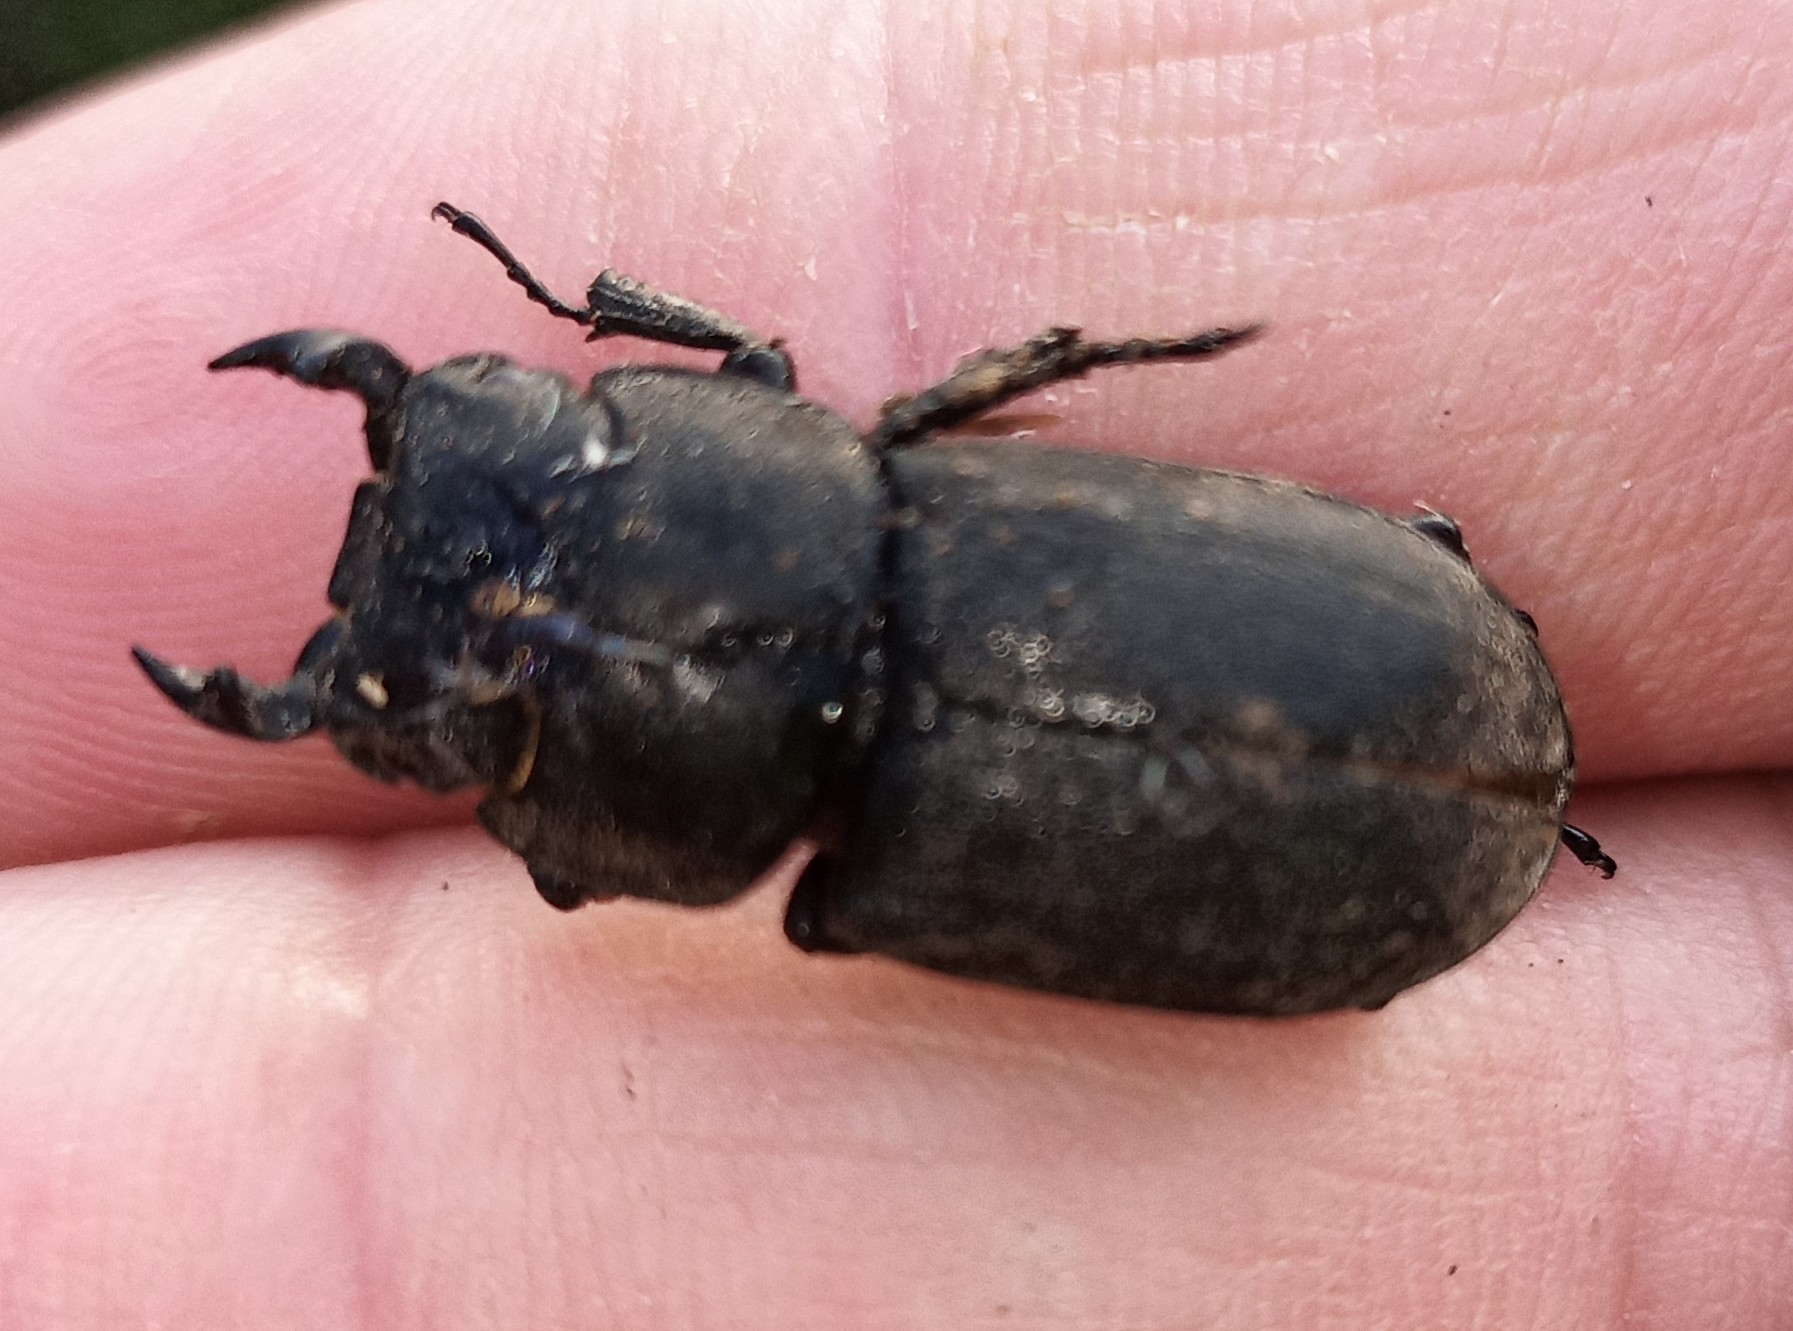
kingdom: Animalia
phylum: Arthropoda
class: Insecta
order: Coleoptera
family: Lucanidae
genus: Dorcus
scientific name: Dorcus parallelipipedus
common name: Lesser stag beetle
